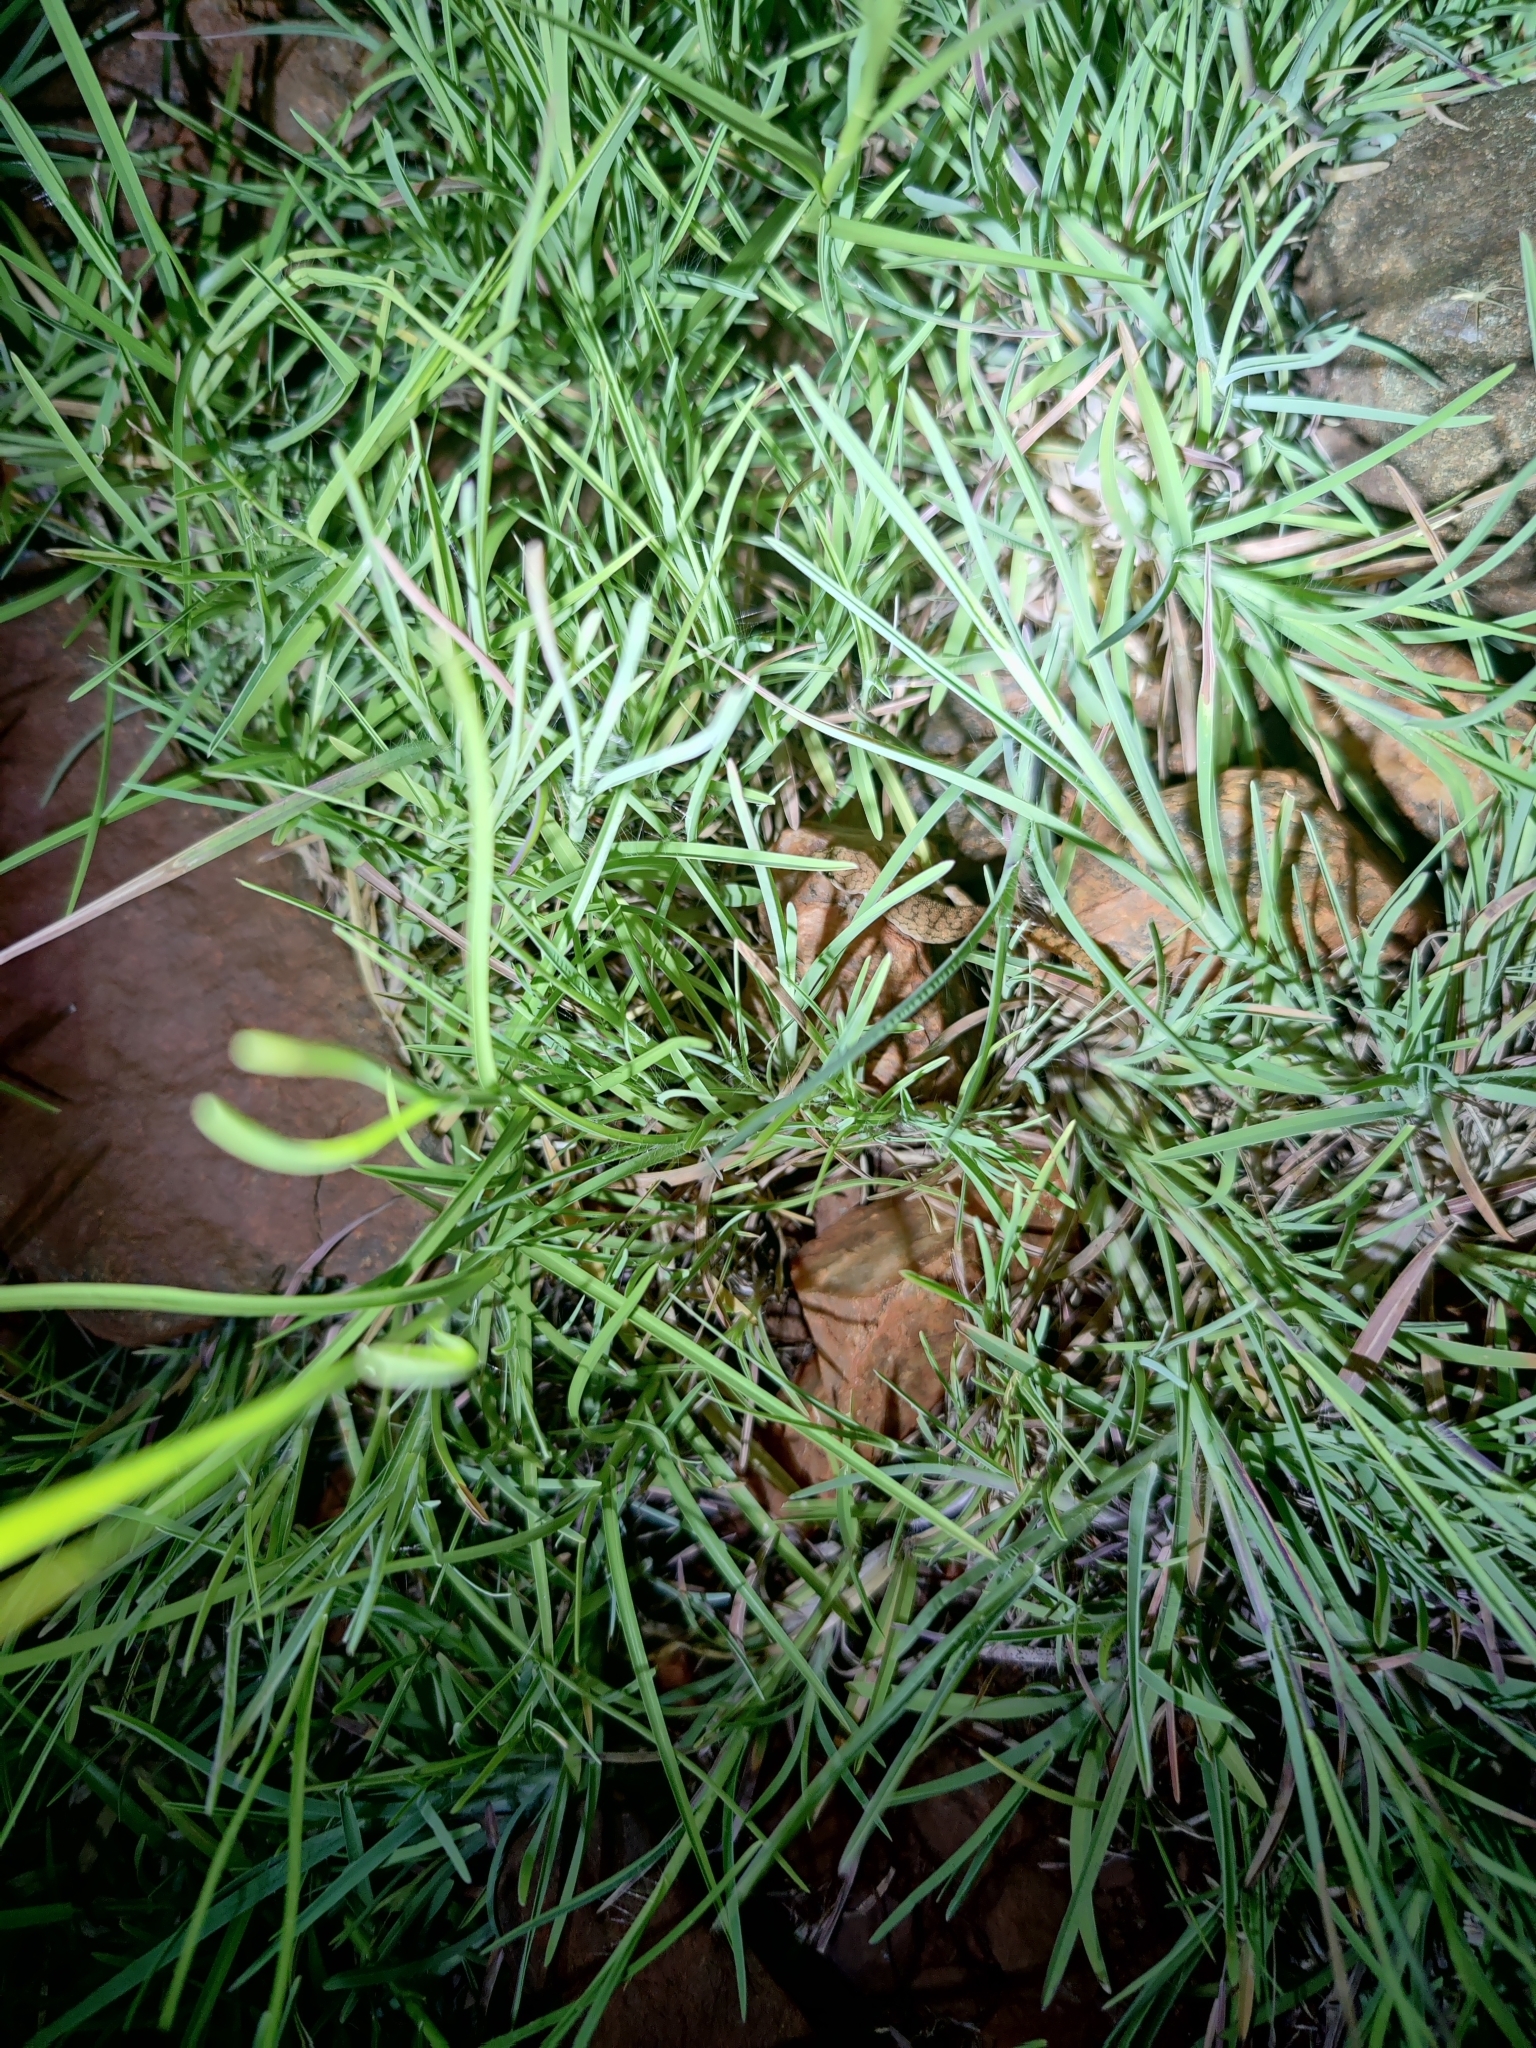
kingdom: Animalia
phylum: Chordata
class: Squamata
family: Gekkonidae
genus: Hemidactylus
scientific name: Hemidactylus reticulatus
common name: Reticulate leaf-toed gecko
